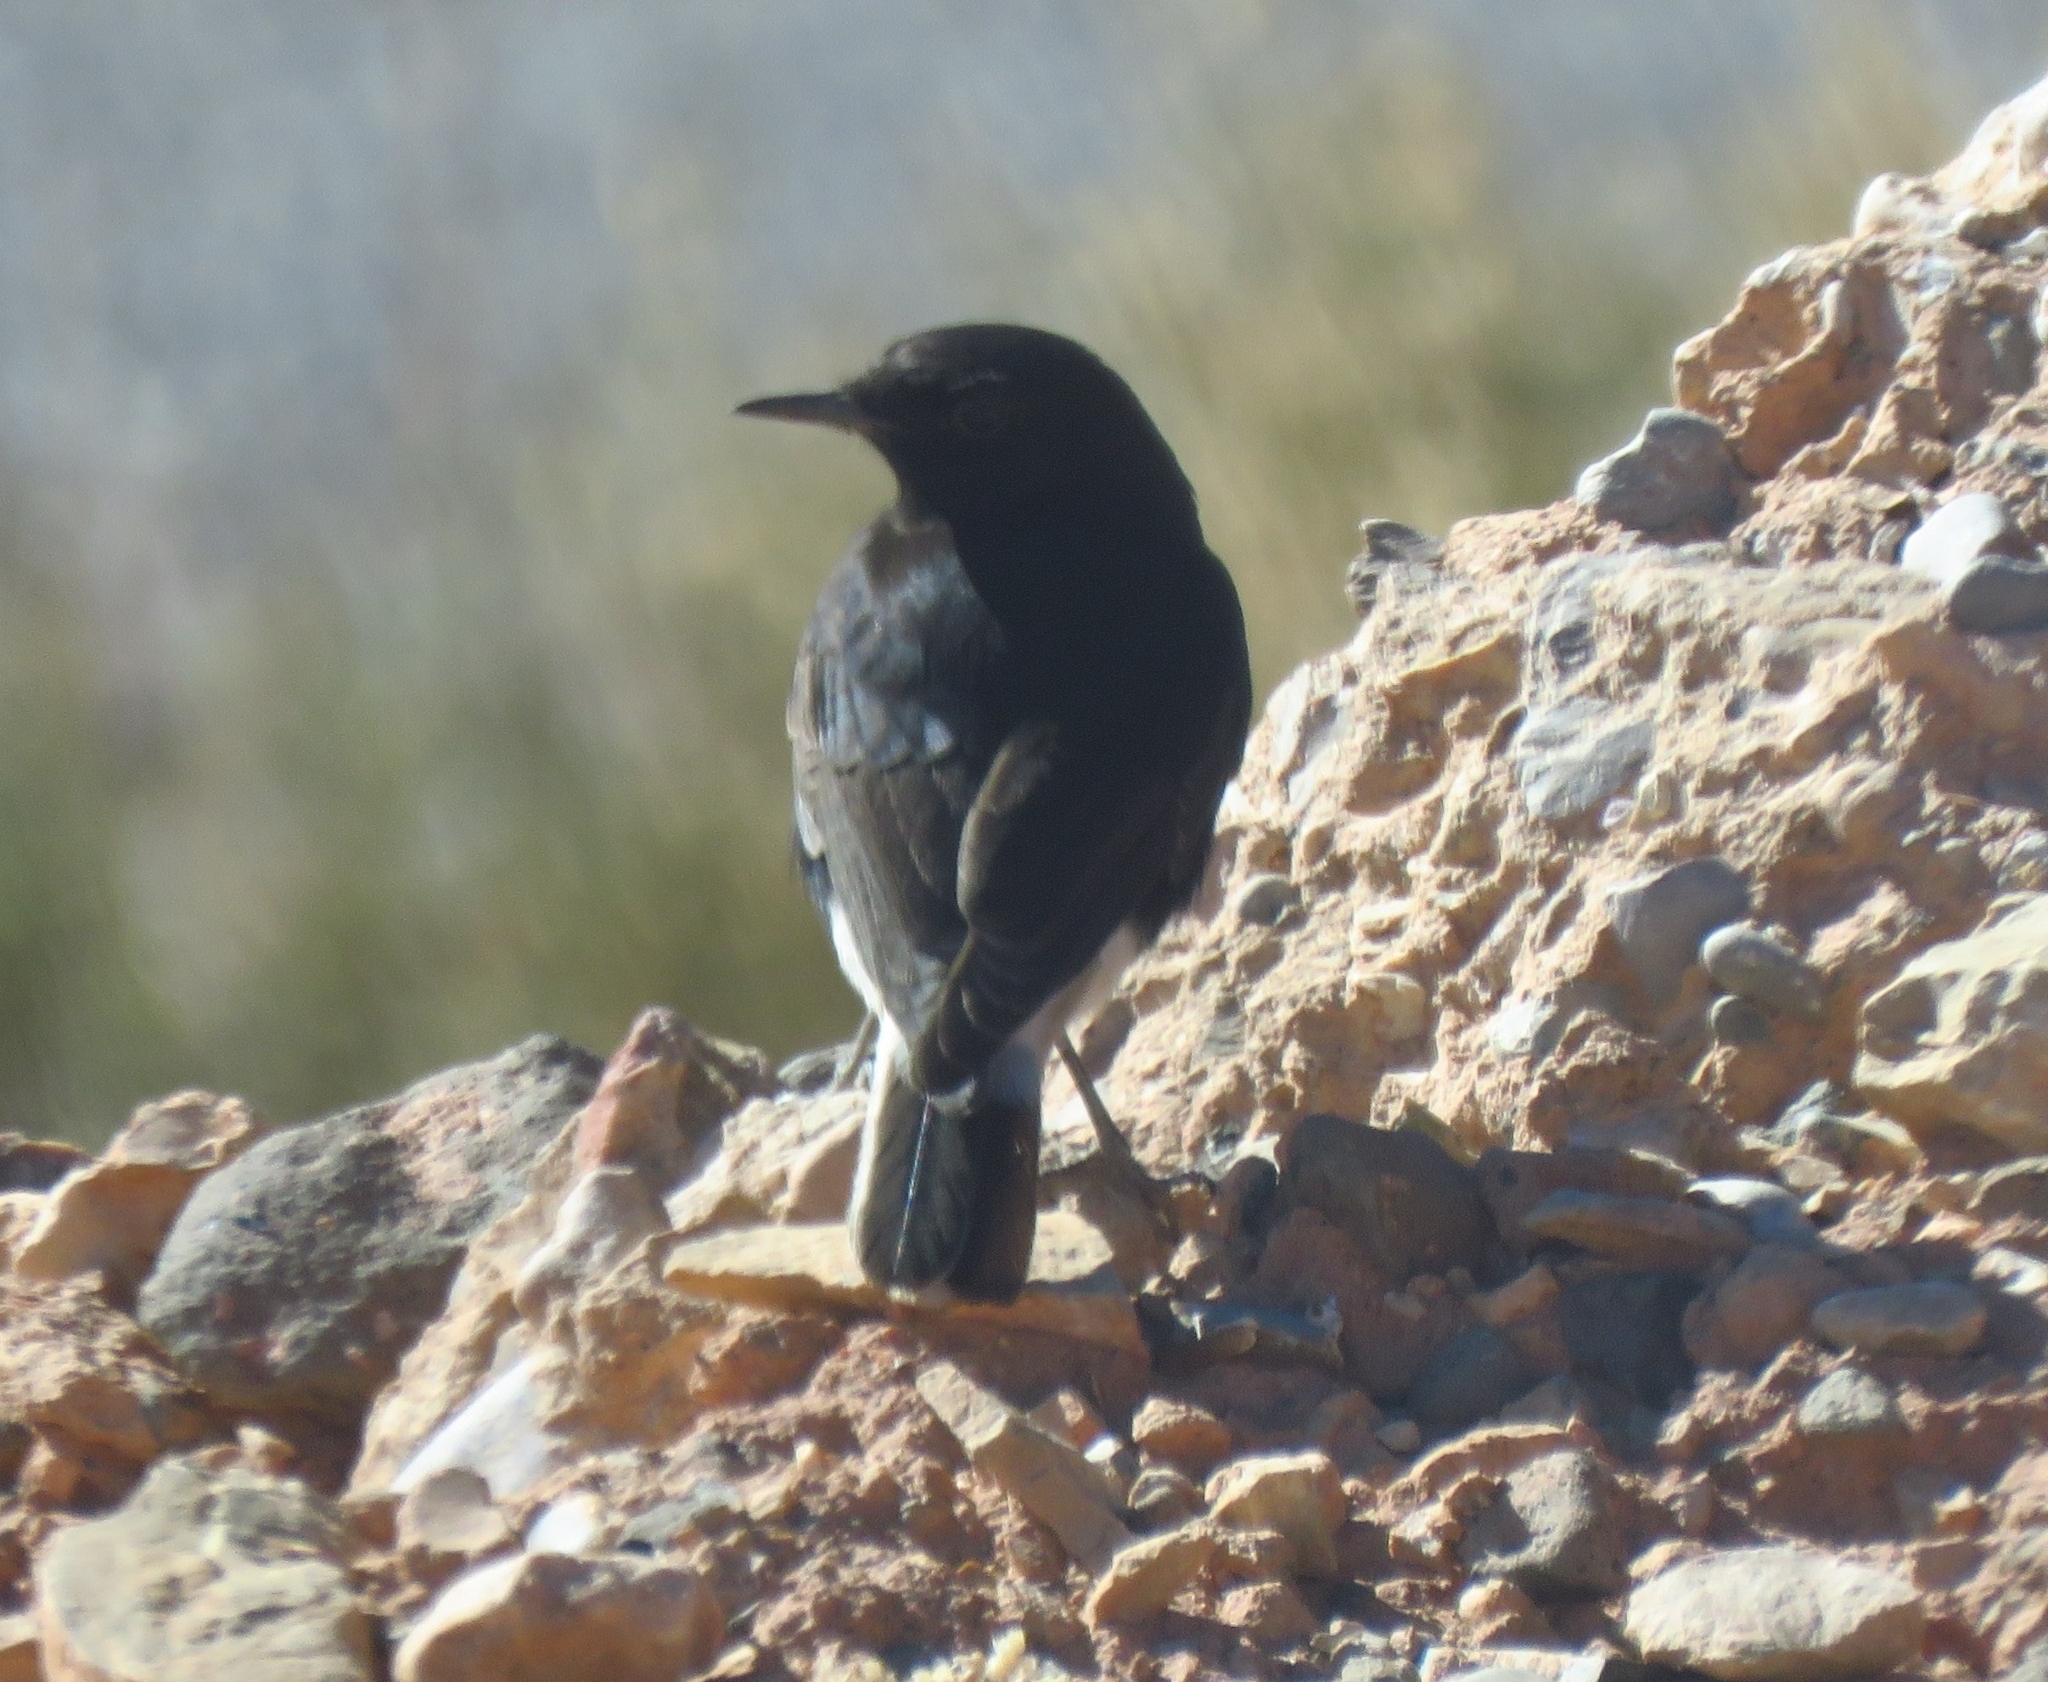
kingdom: Animalia
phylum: Chordata
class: Aves
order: Passeriformes
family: Muscicapidae
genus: Oenanthe
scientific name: Oenanthe leucopyga
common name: White-crowned wheatear
